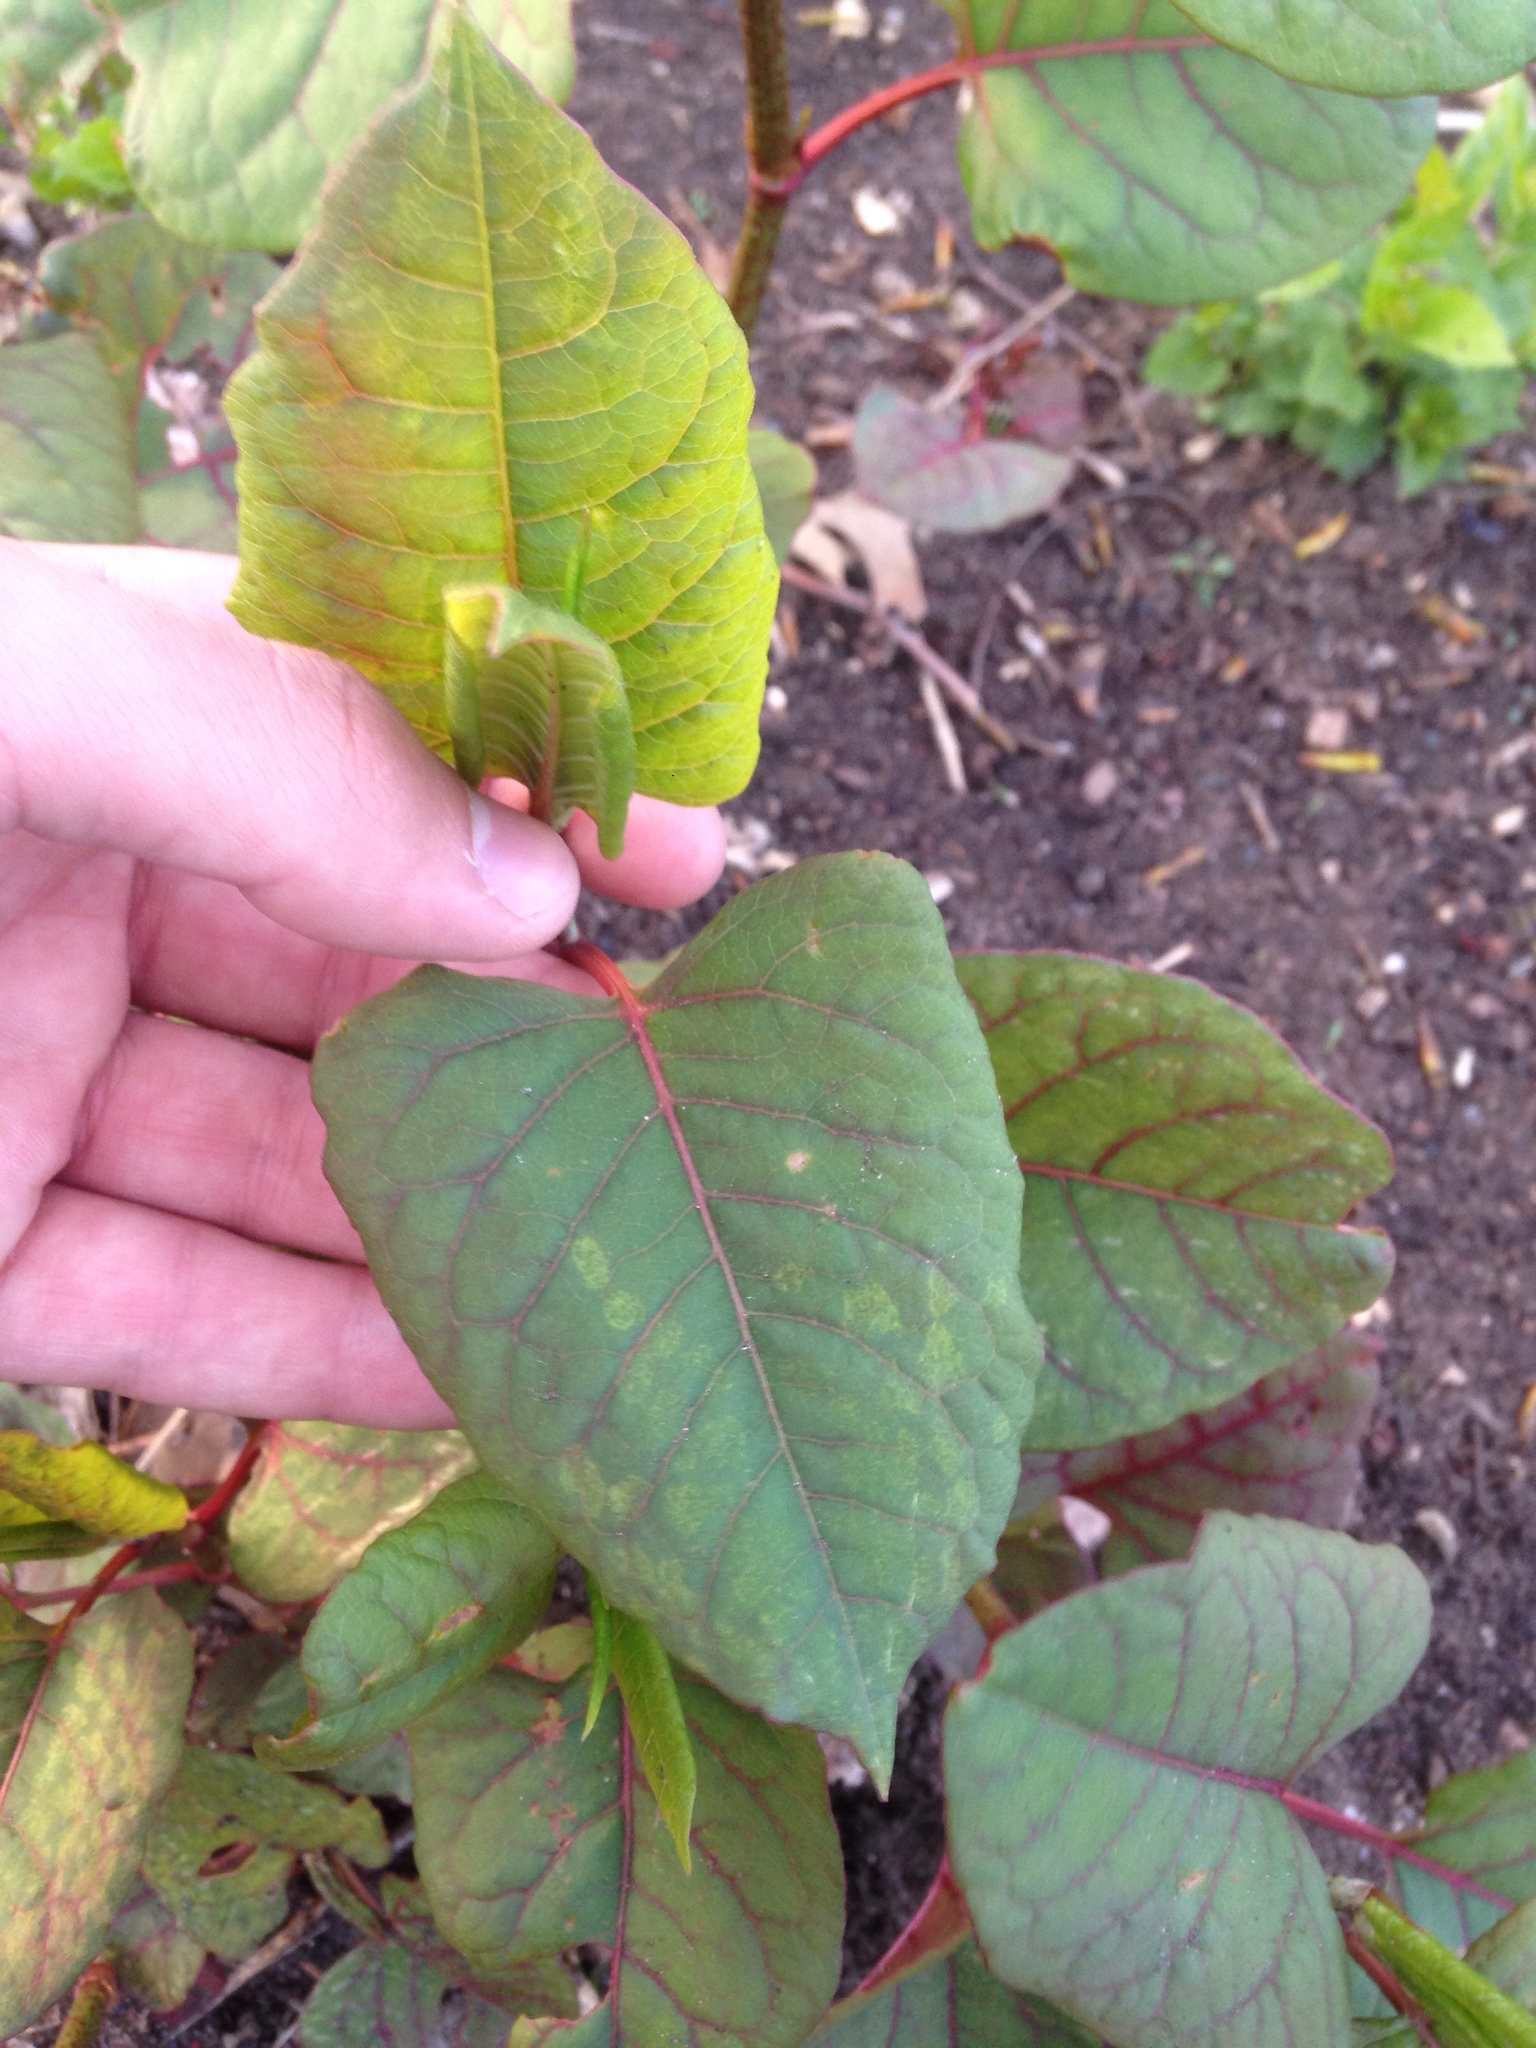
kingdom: Plantae
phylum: Tracheophyta
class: Magnoliopsida
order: Caryophyllales
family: Polygonaceae
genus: Reynoutria
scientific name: Reynoutria japonica
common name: Japanese knotweed
